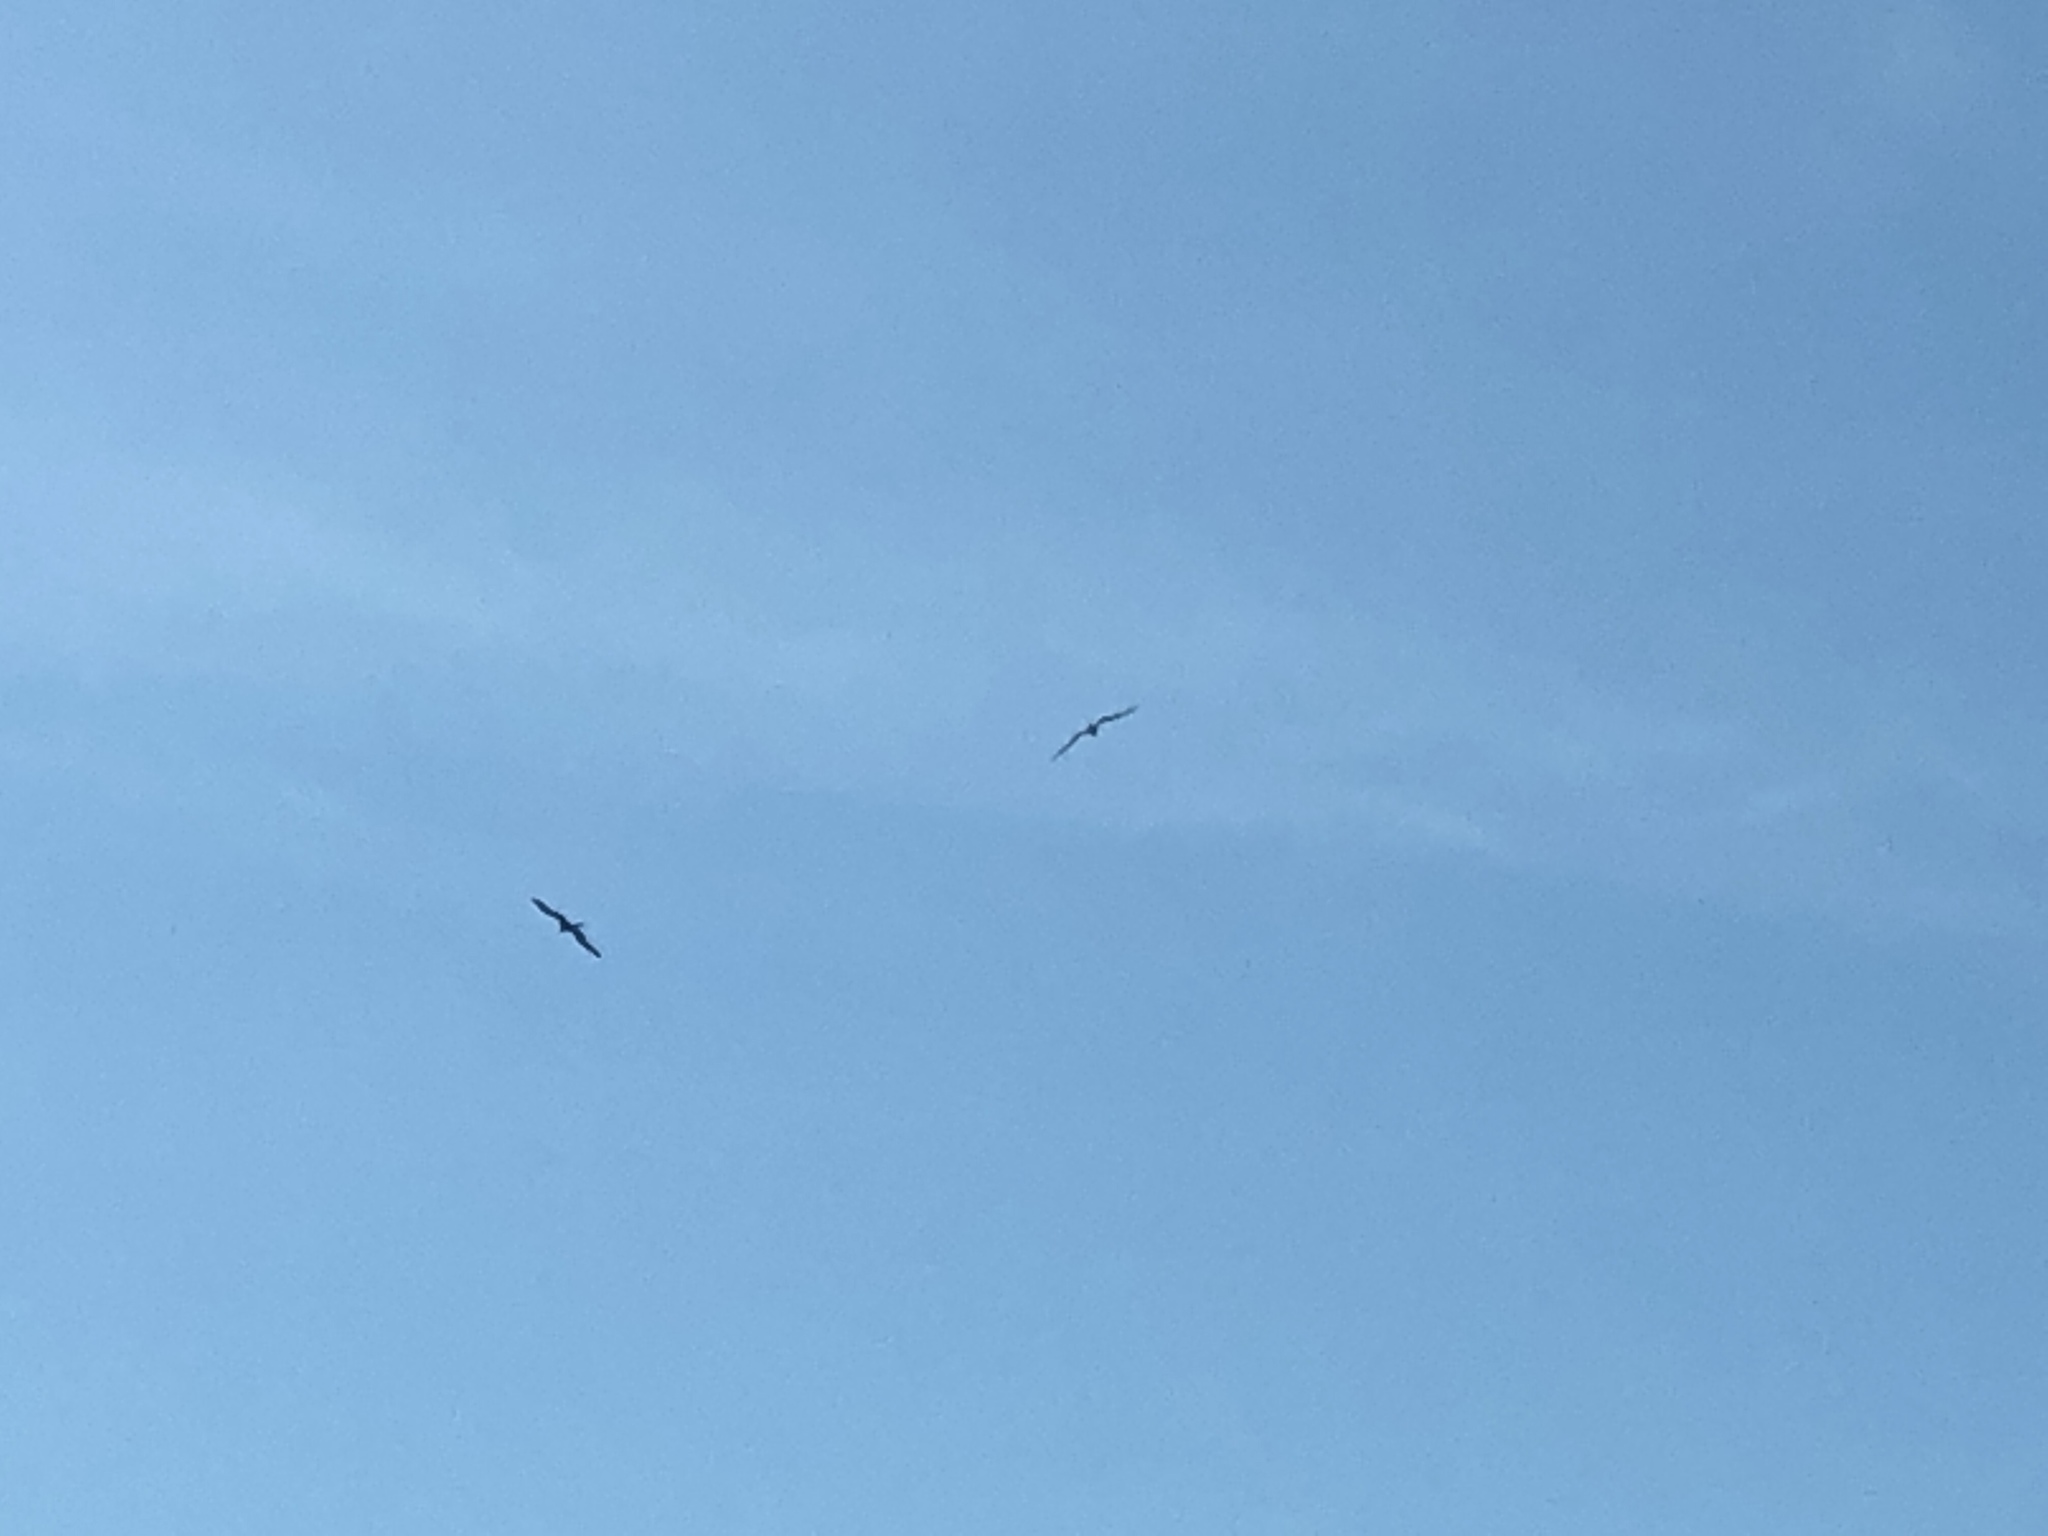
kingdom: Animalia
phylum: Chordata
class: Aves
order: Suliformes
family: Fregatidae
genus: Fregata
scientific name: Fregata magnificens
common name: Magnificent frigatebird
